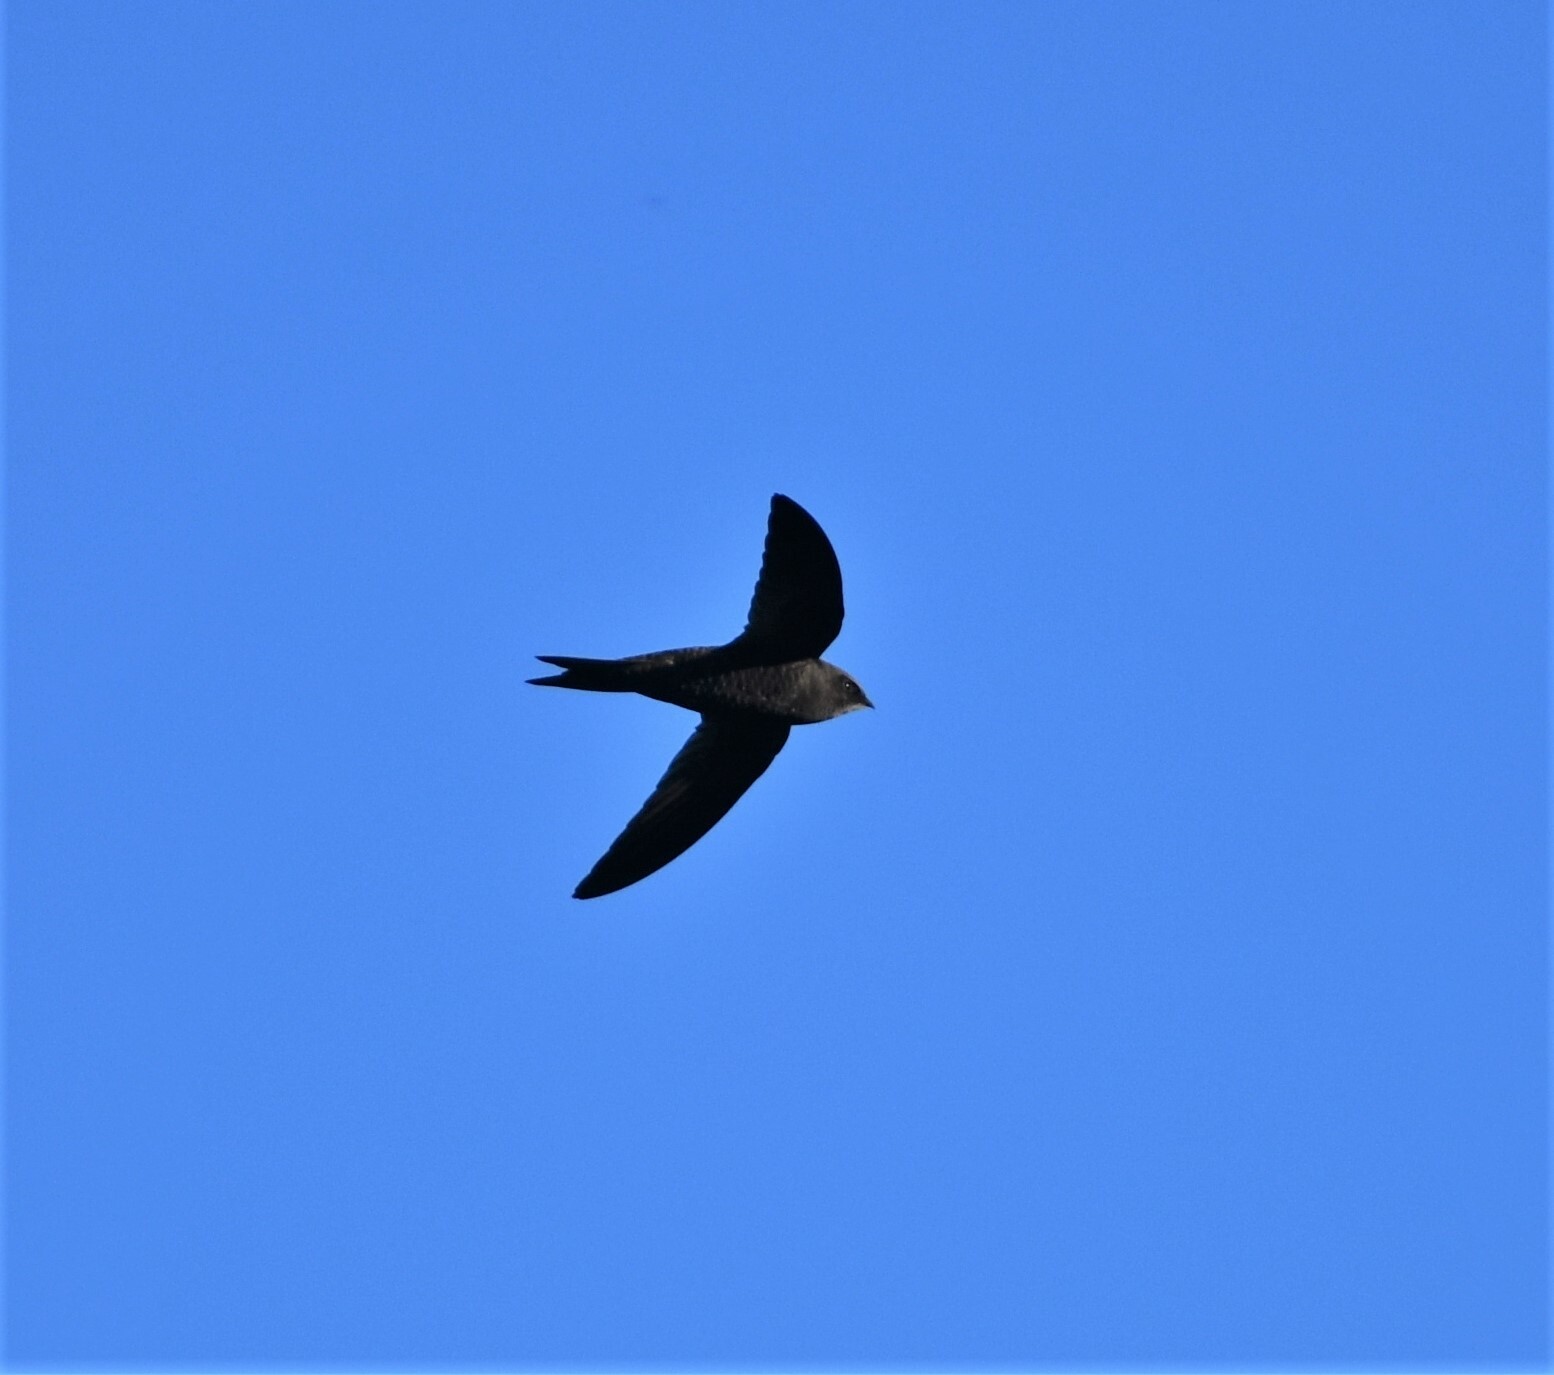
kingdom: Animalia
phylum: Chordata
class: Aves
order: Apodiformes
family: Apodidae
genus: Apus
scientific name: Apus barbatus
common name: African black swift
